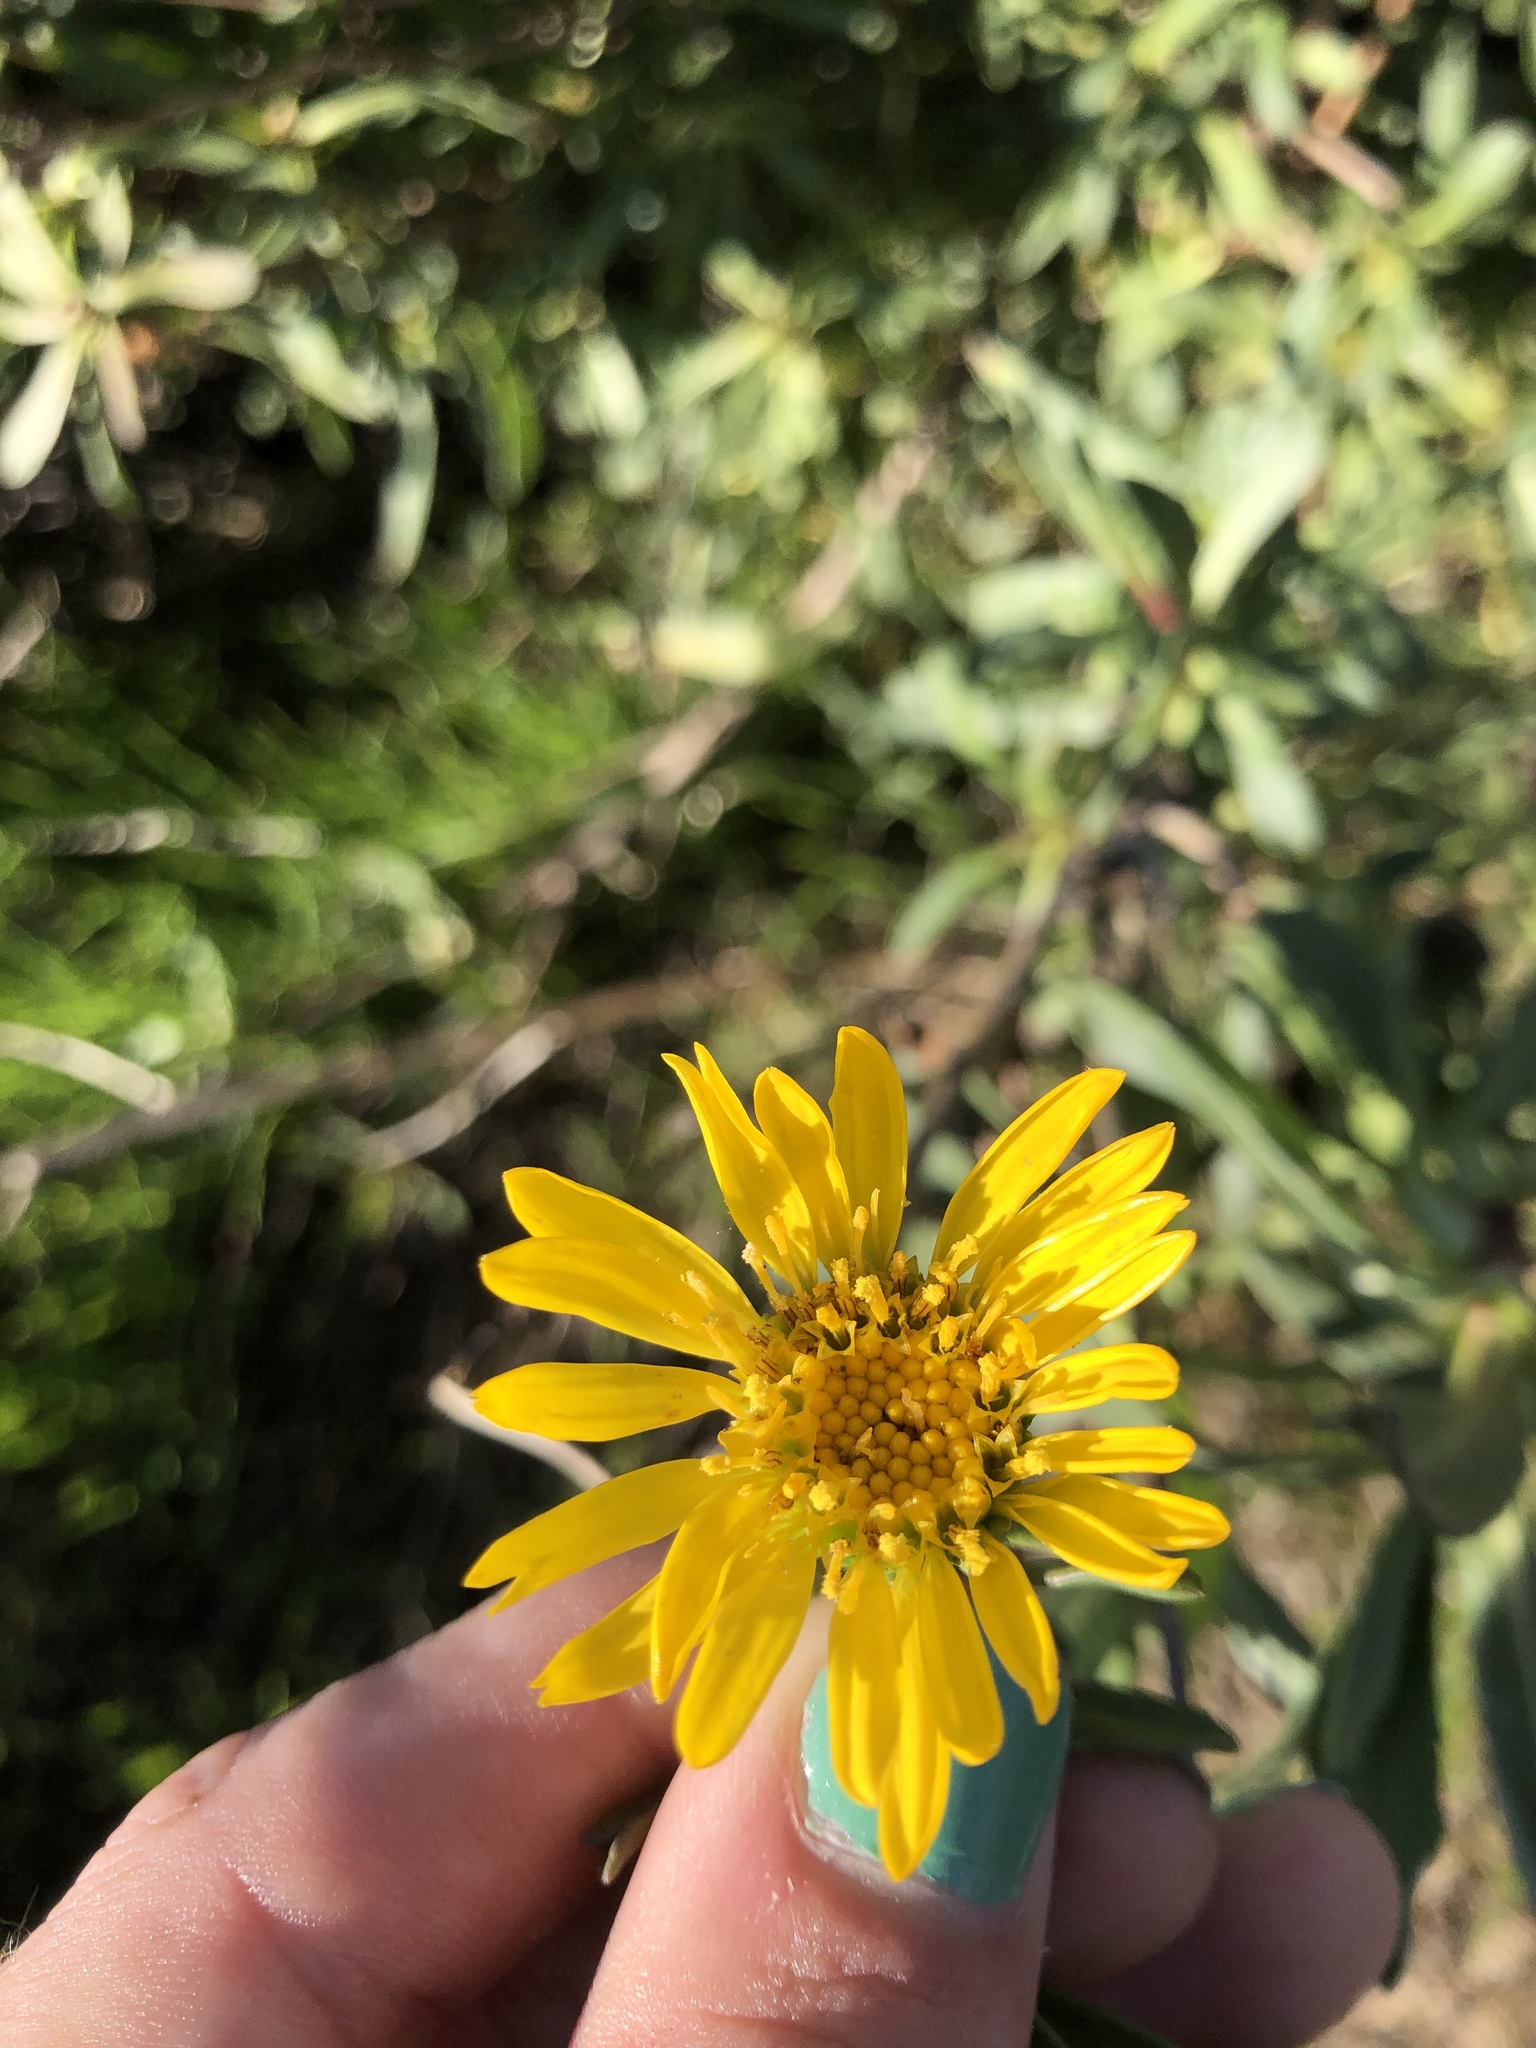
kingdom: Plantae
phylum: Tracheophyta
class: Magnoliopsida
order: Asterales
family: Asteraceae
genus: Grindelia
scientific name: Grindelia hirsutula
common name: Hairy gumweed
